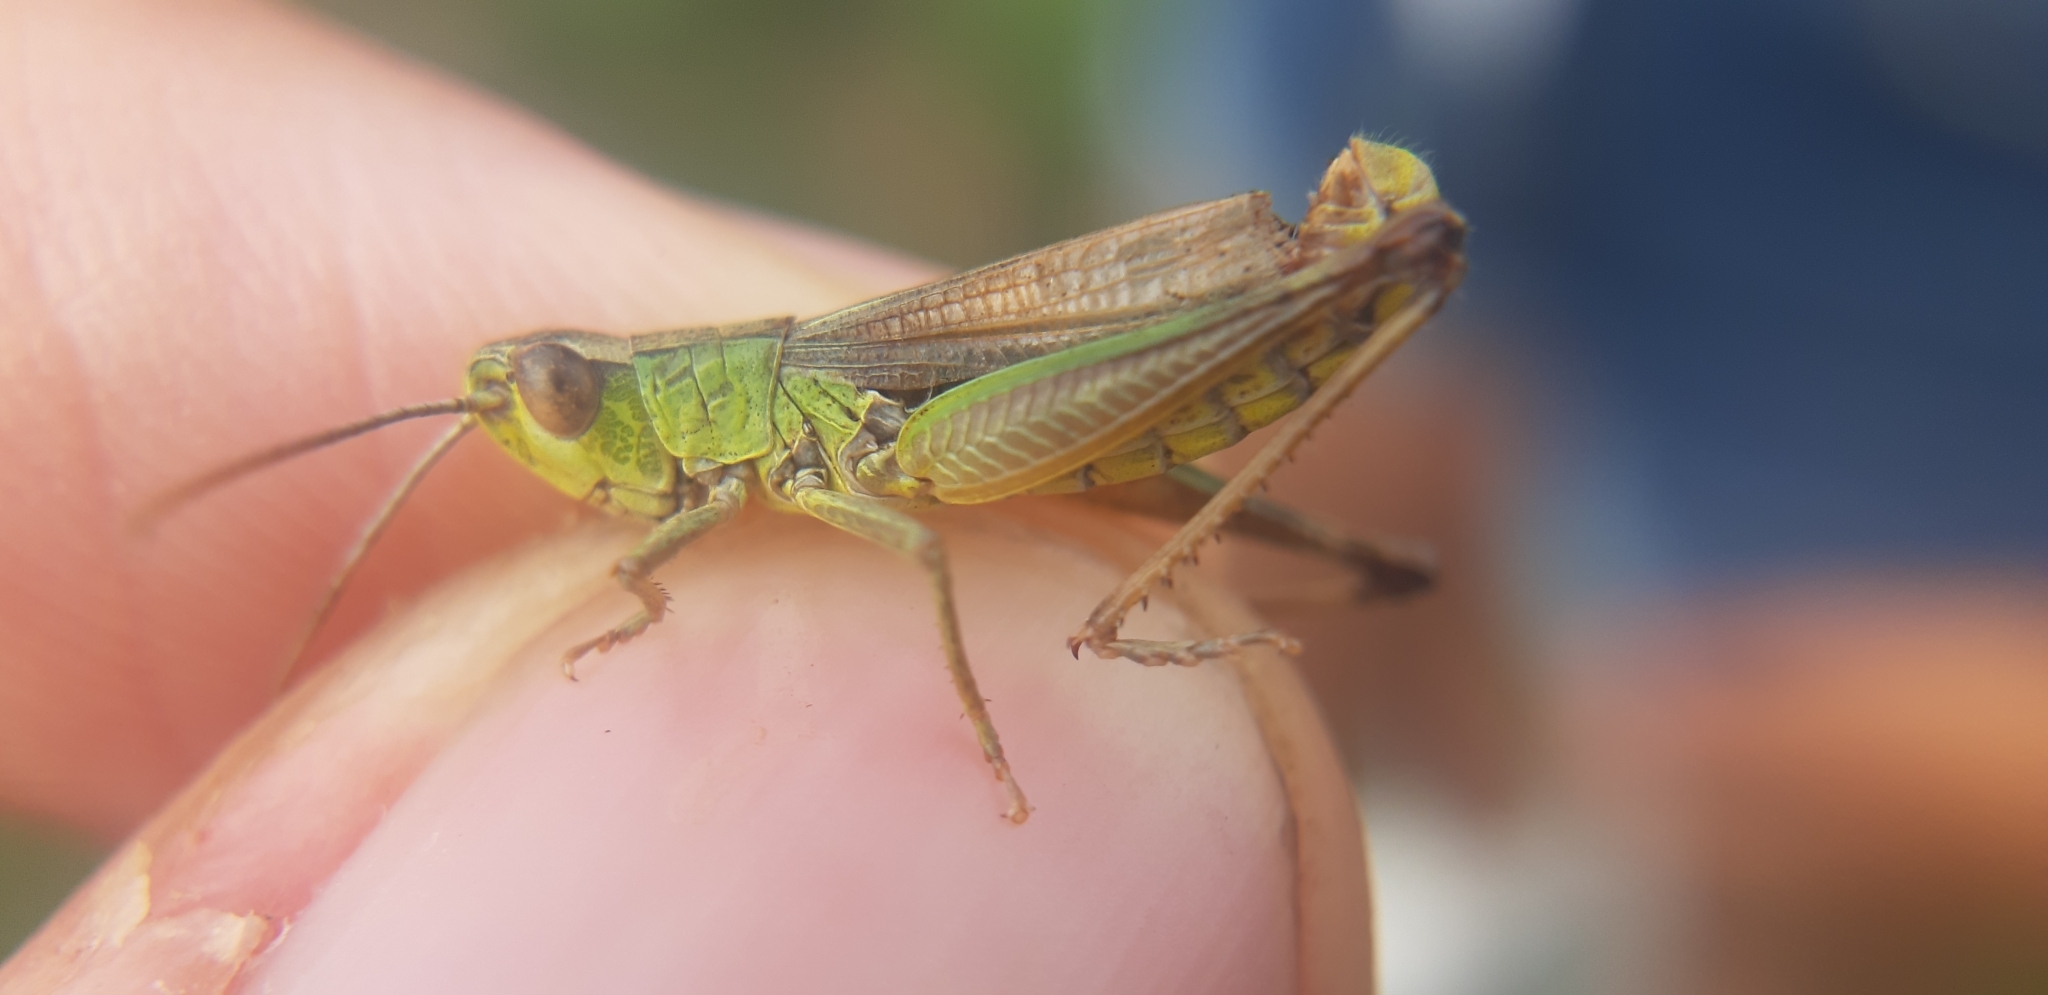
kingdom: Animalia
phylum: Arthropoda
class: Insecta
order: Orthoptera
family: Acrididae
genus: Pseudochorthippus
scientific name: Pseudochorthippus parallelus
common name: Meadow grasshopper
